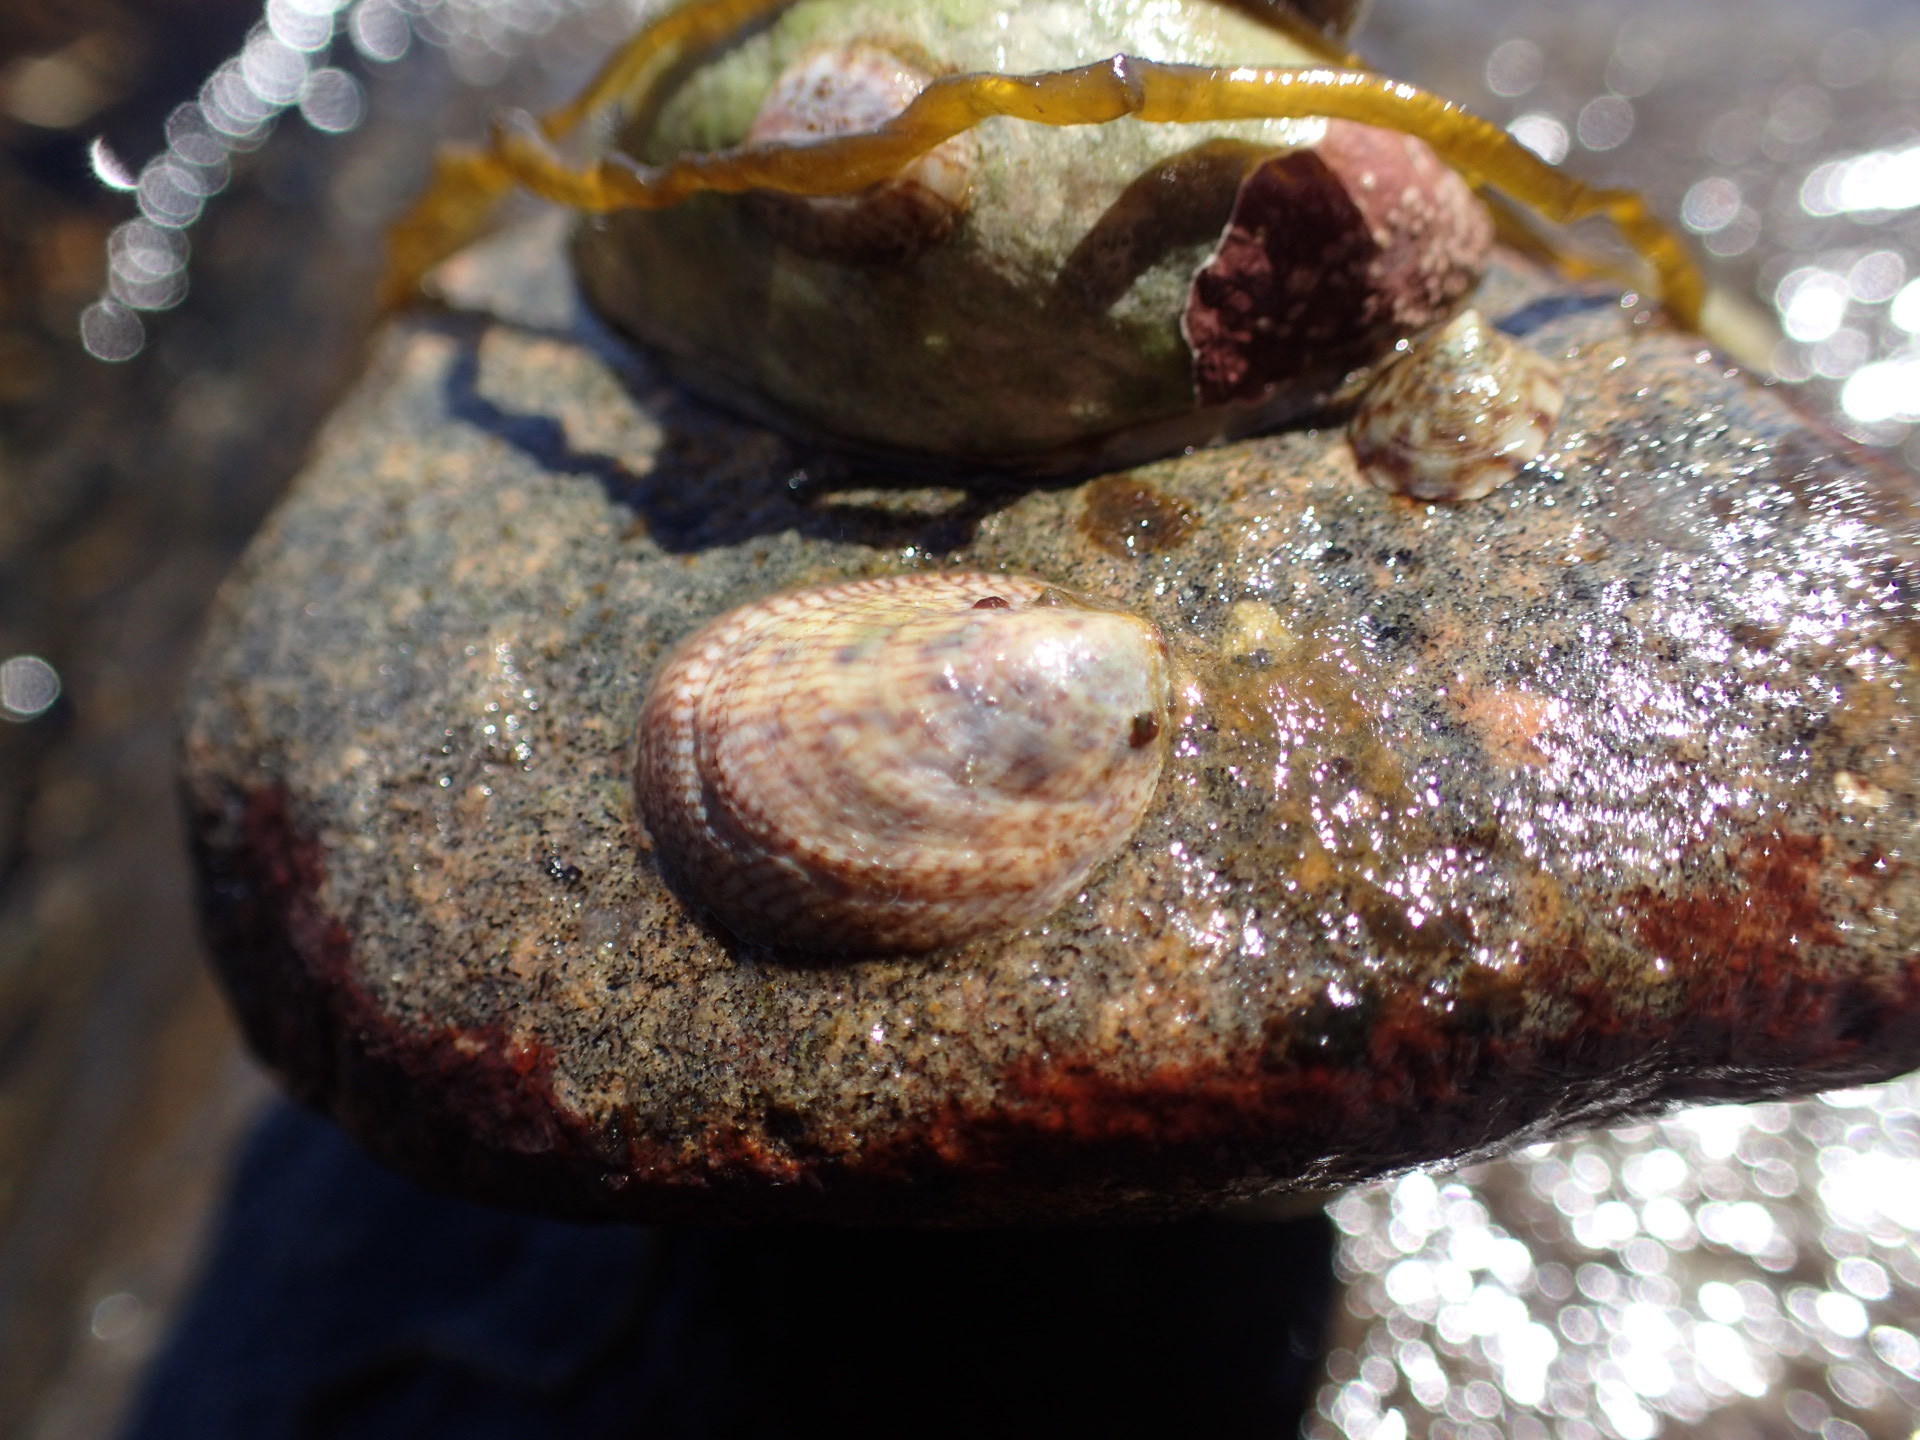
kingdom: Animalia
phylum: Mollusca
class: Gastropoda
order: Littorinimorpha
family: Calyptraeidae
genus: Crepidula
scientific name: Crepidula fornicata
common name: Slipper limpet
